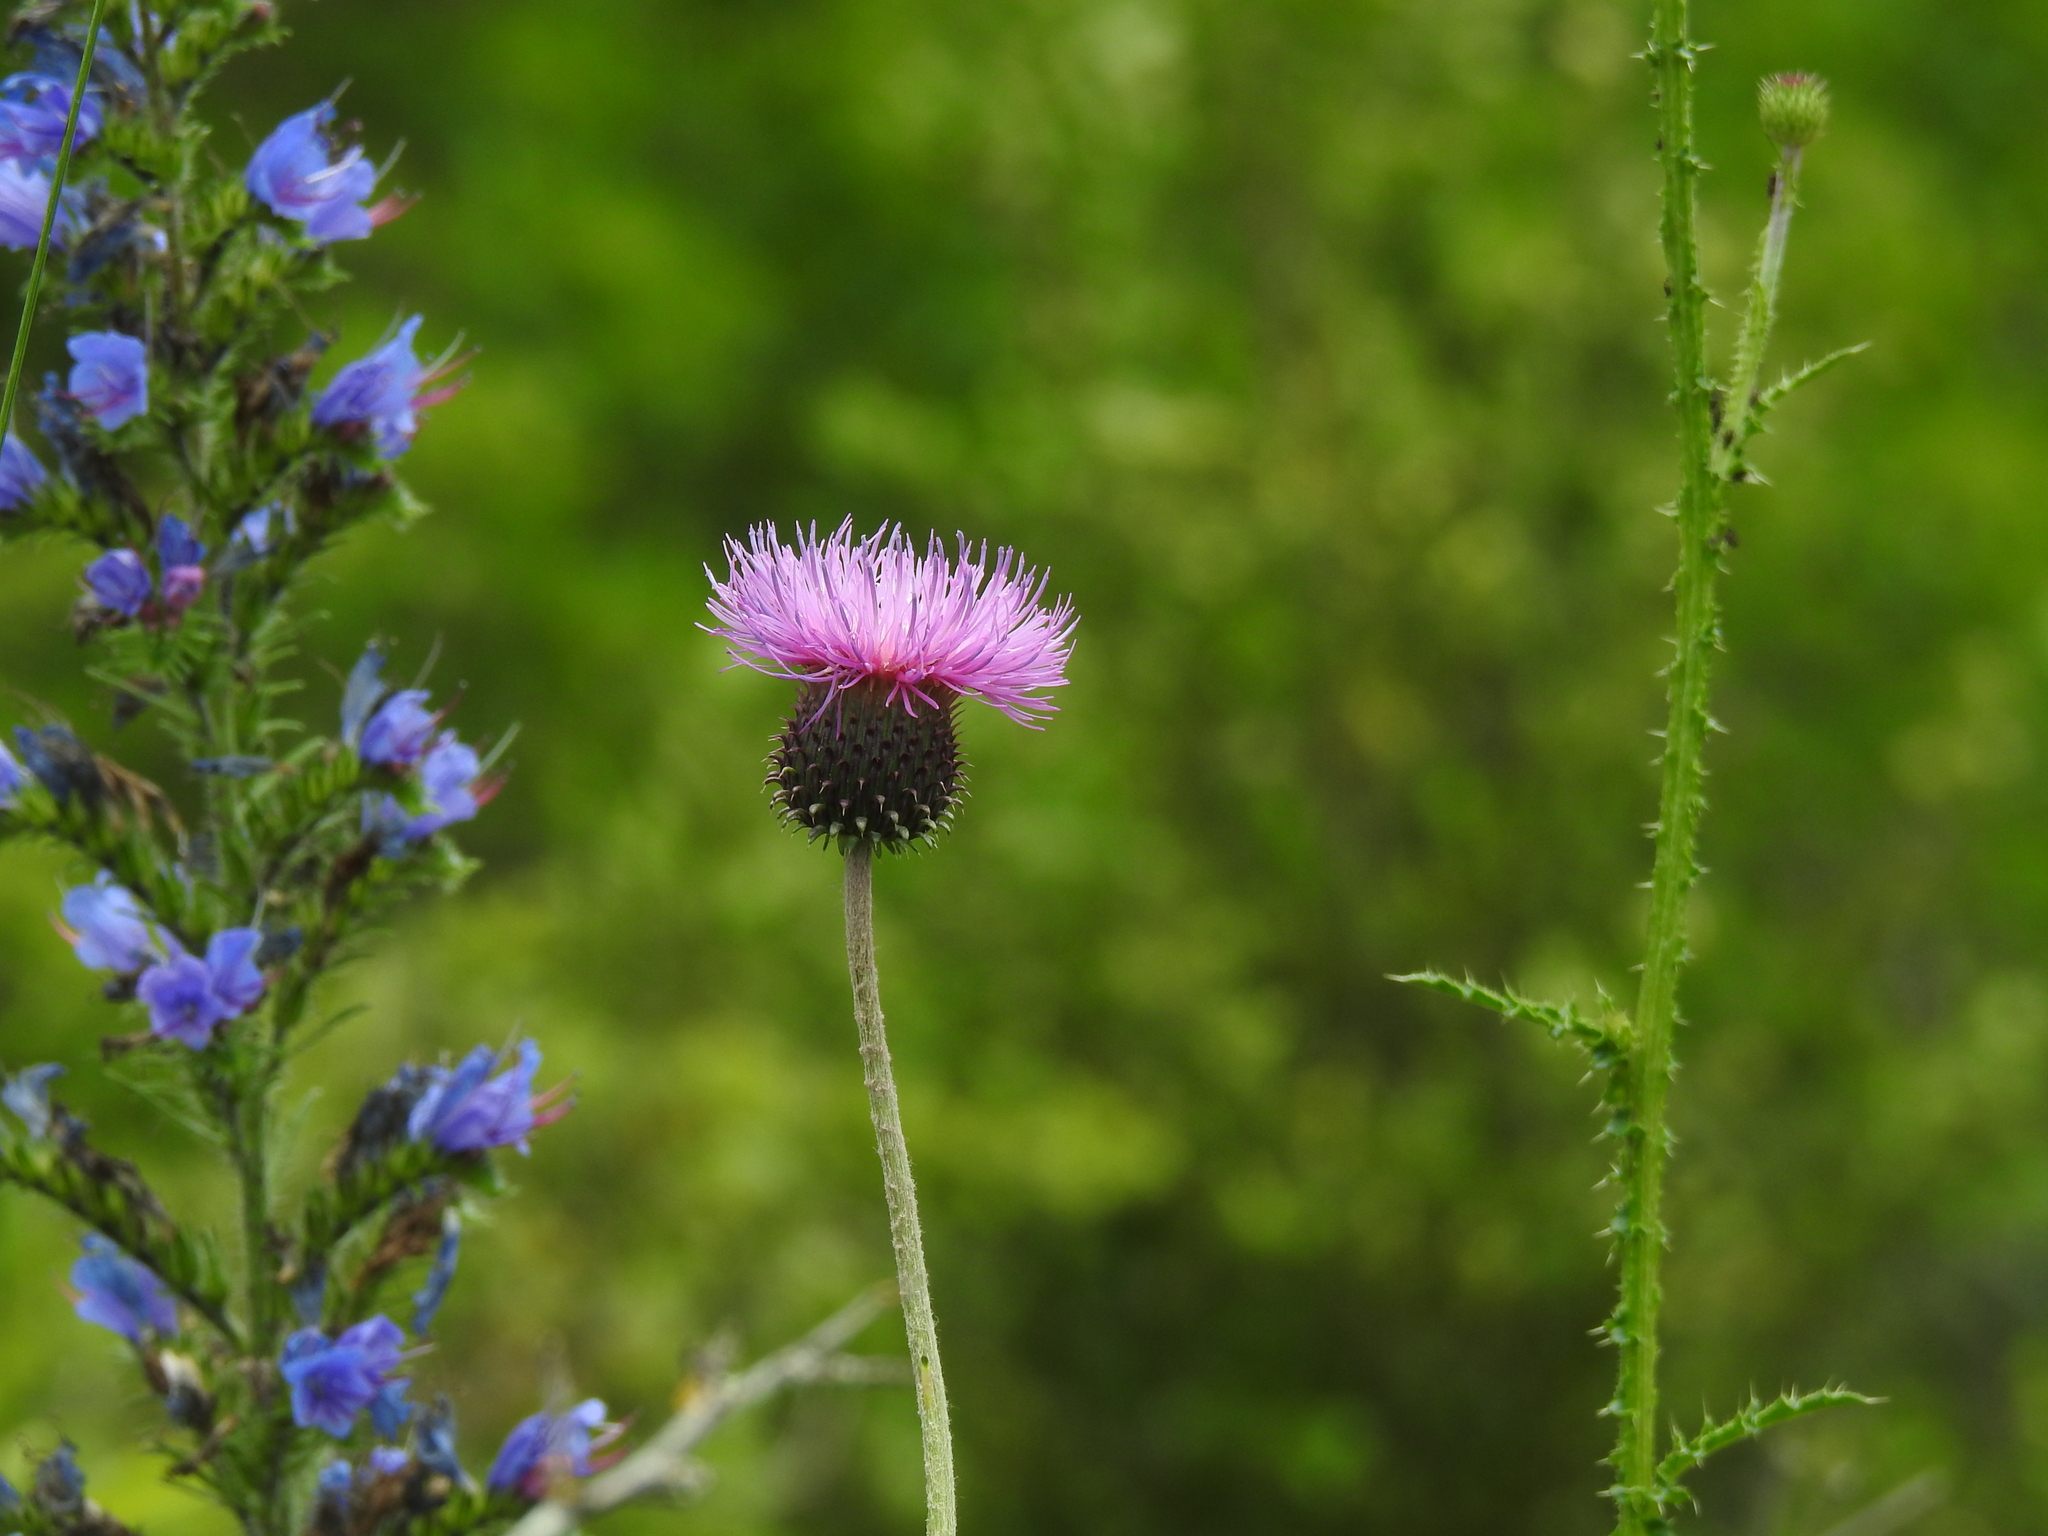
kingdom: Plantae
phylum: Tracheophyta
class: Magnoliopsida
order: Asterales
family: Asteraceae
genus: Carduus
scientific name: Carduus nigrescens
